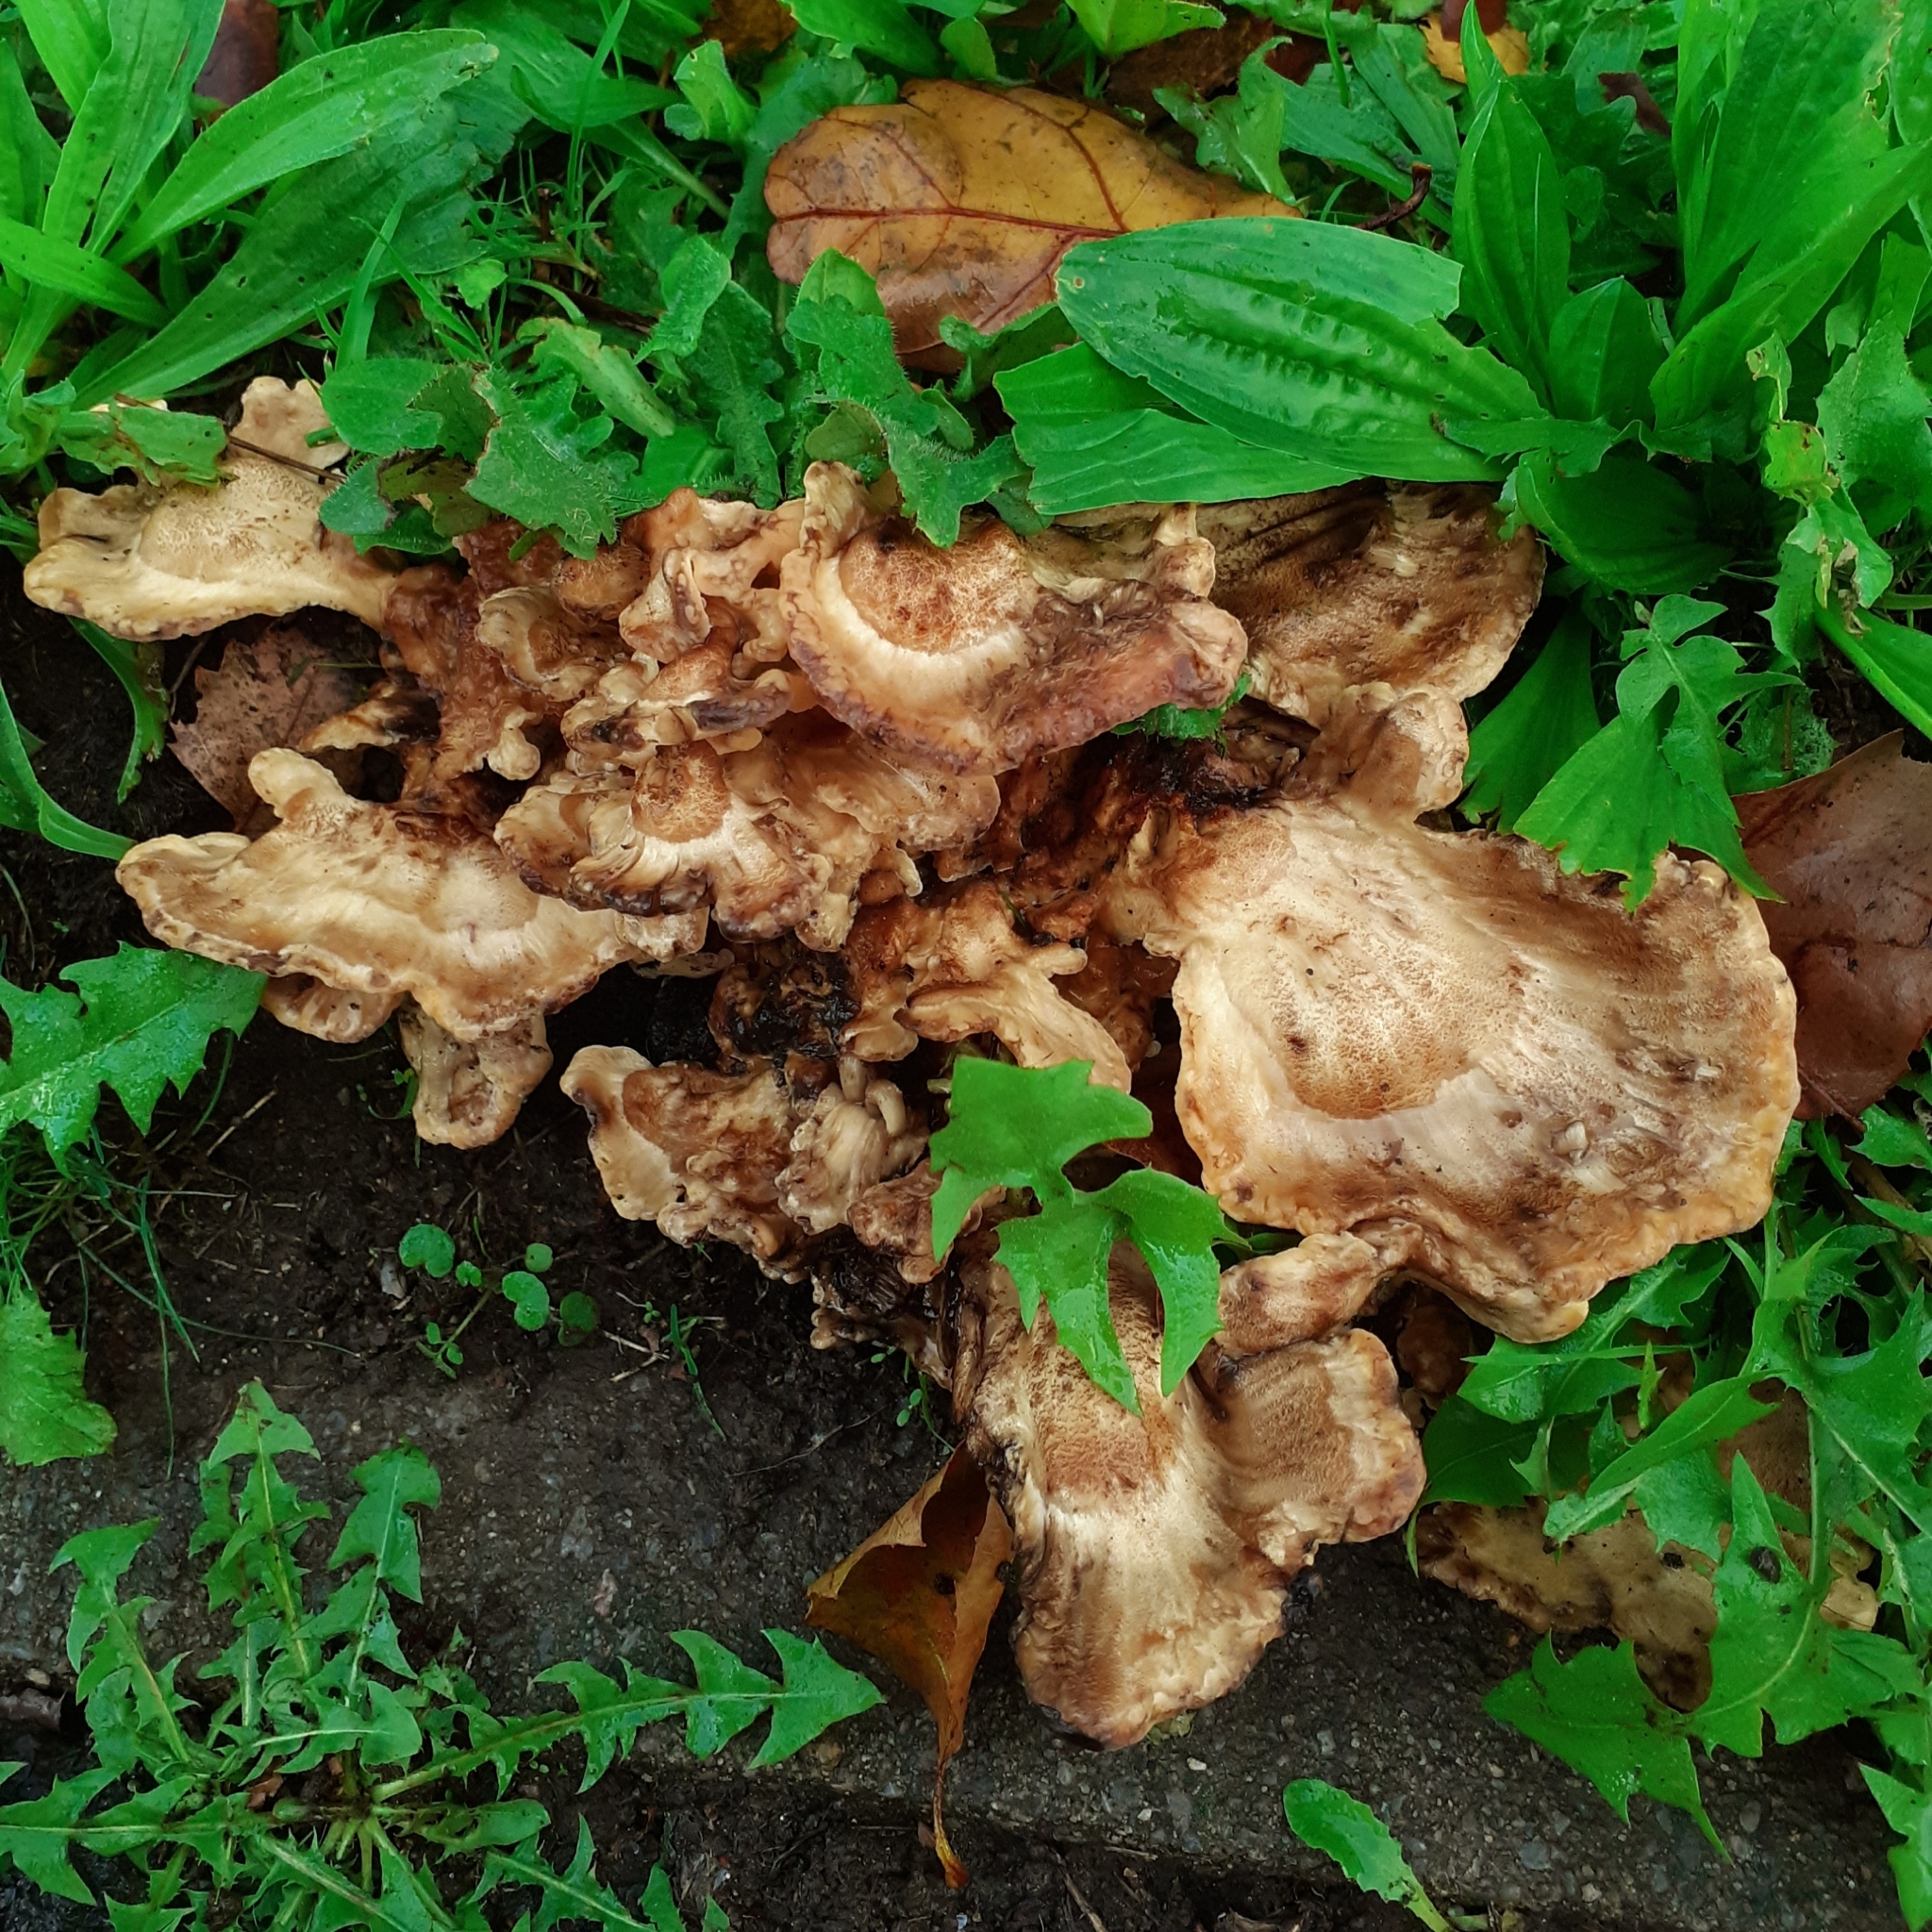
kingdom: Fungi
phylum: Basidiomycota
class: Agaricomycetes
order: Polyporales
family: Meripilaceae
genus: Meripilus
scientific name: Meripilus giganteus
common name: Giant polypore
